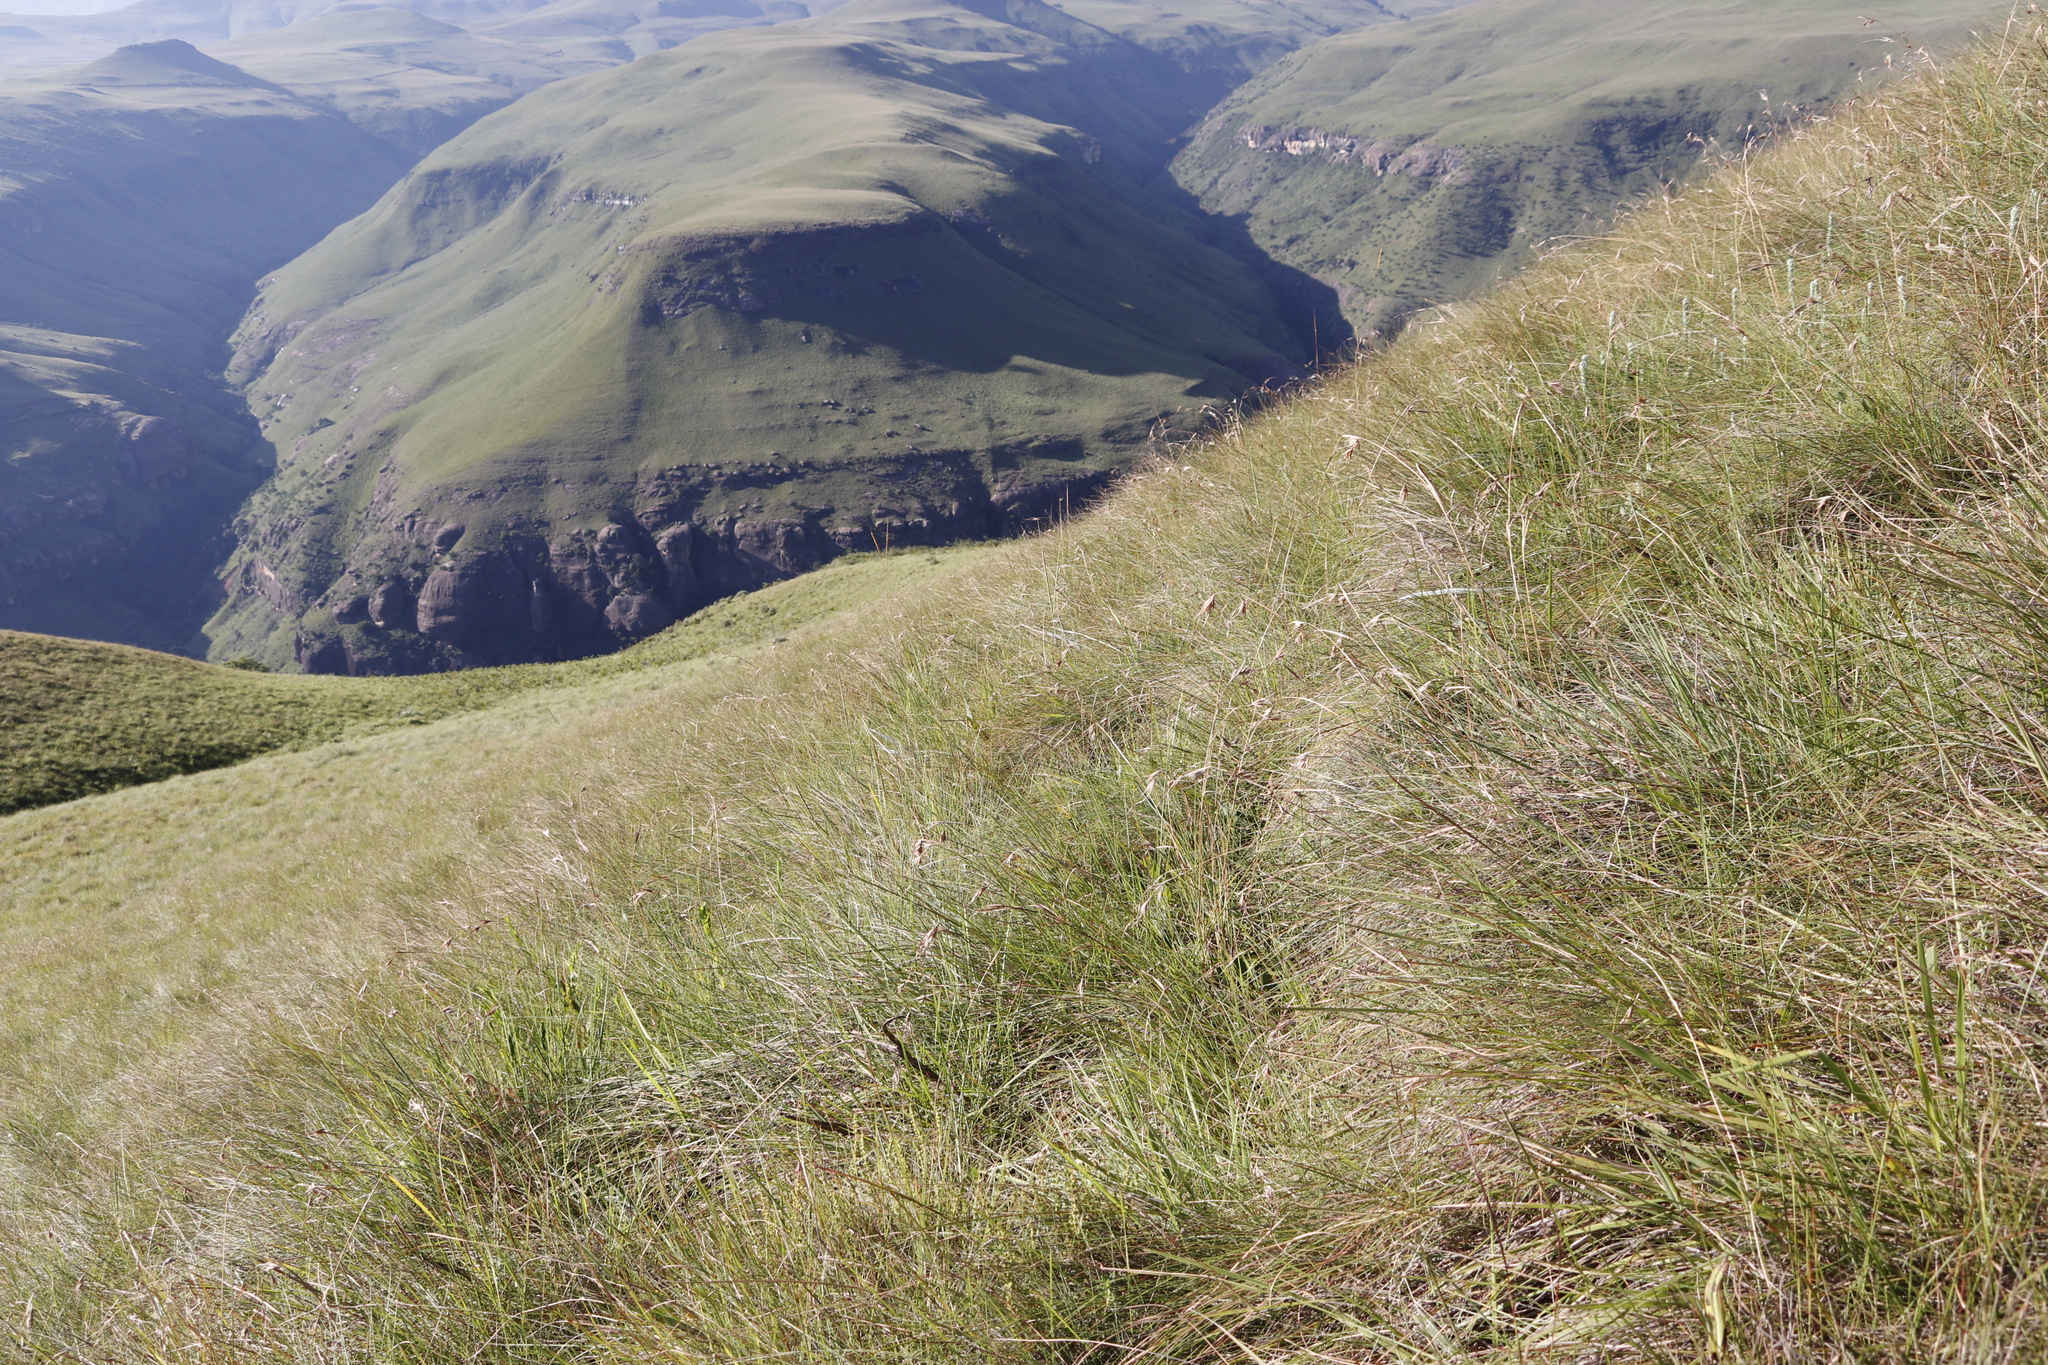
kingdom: Plantae
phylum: Tracheophyta
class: Liliopsida
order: Poales
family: Poaceae
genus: Themeda
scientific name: Themeda triandra
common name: Kangaroo grass
